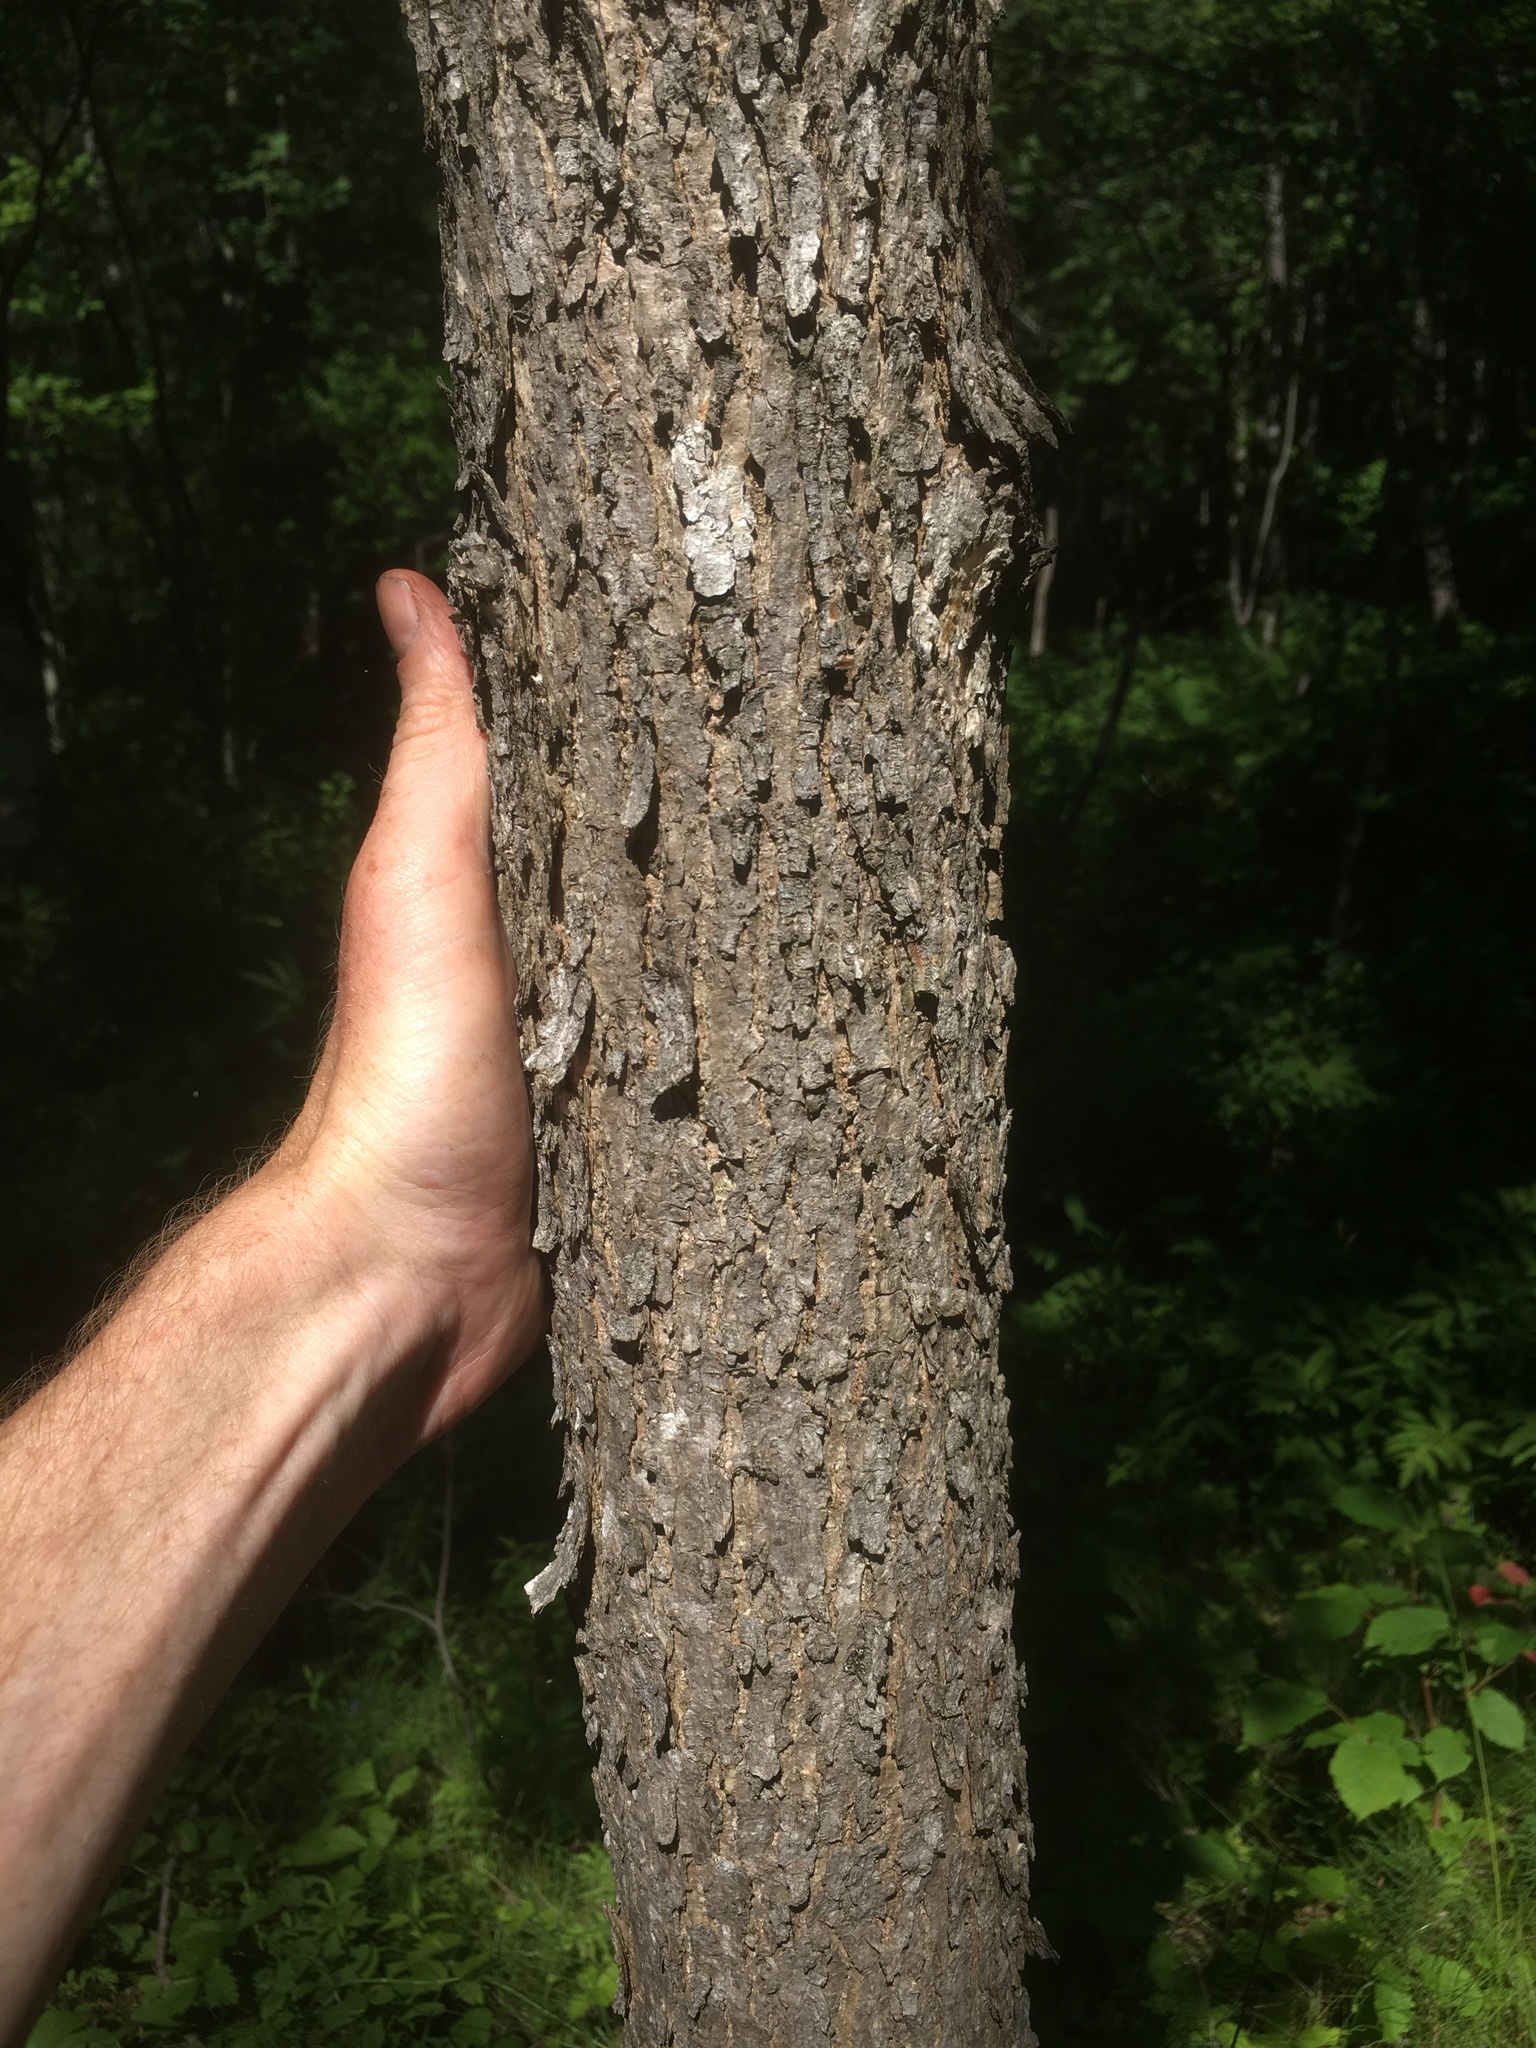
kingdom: Plantae
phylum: Tracheophyta
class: Magnoliopsida
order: Lamiales
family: Oleaceae
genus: Fraxinus
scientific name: Fraxinus nigra
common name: Black ash
